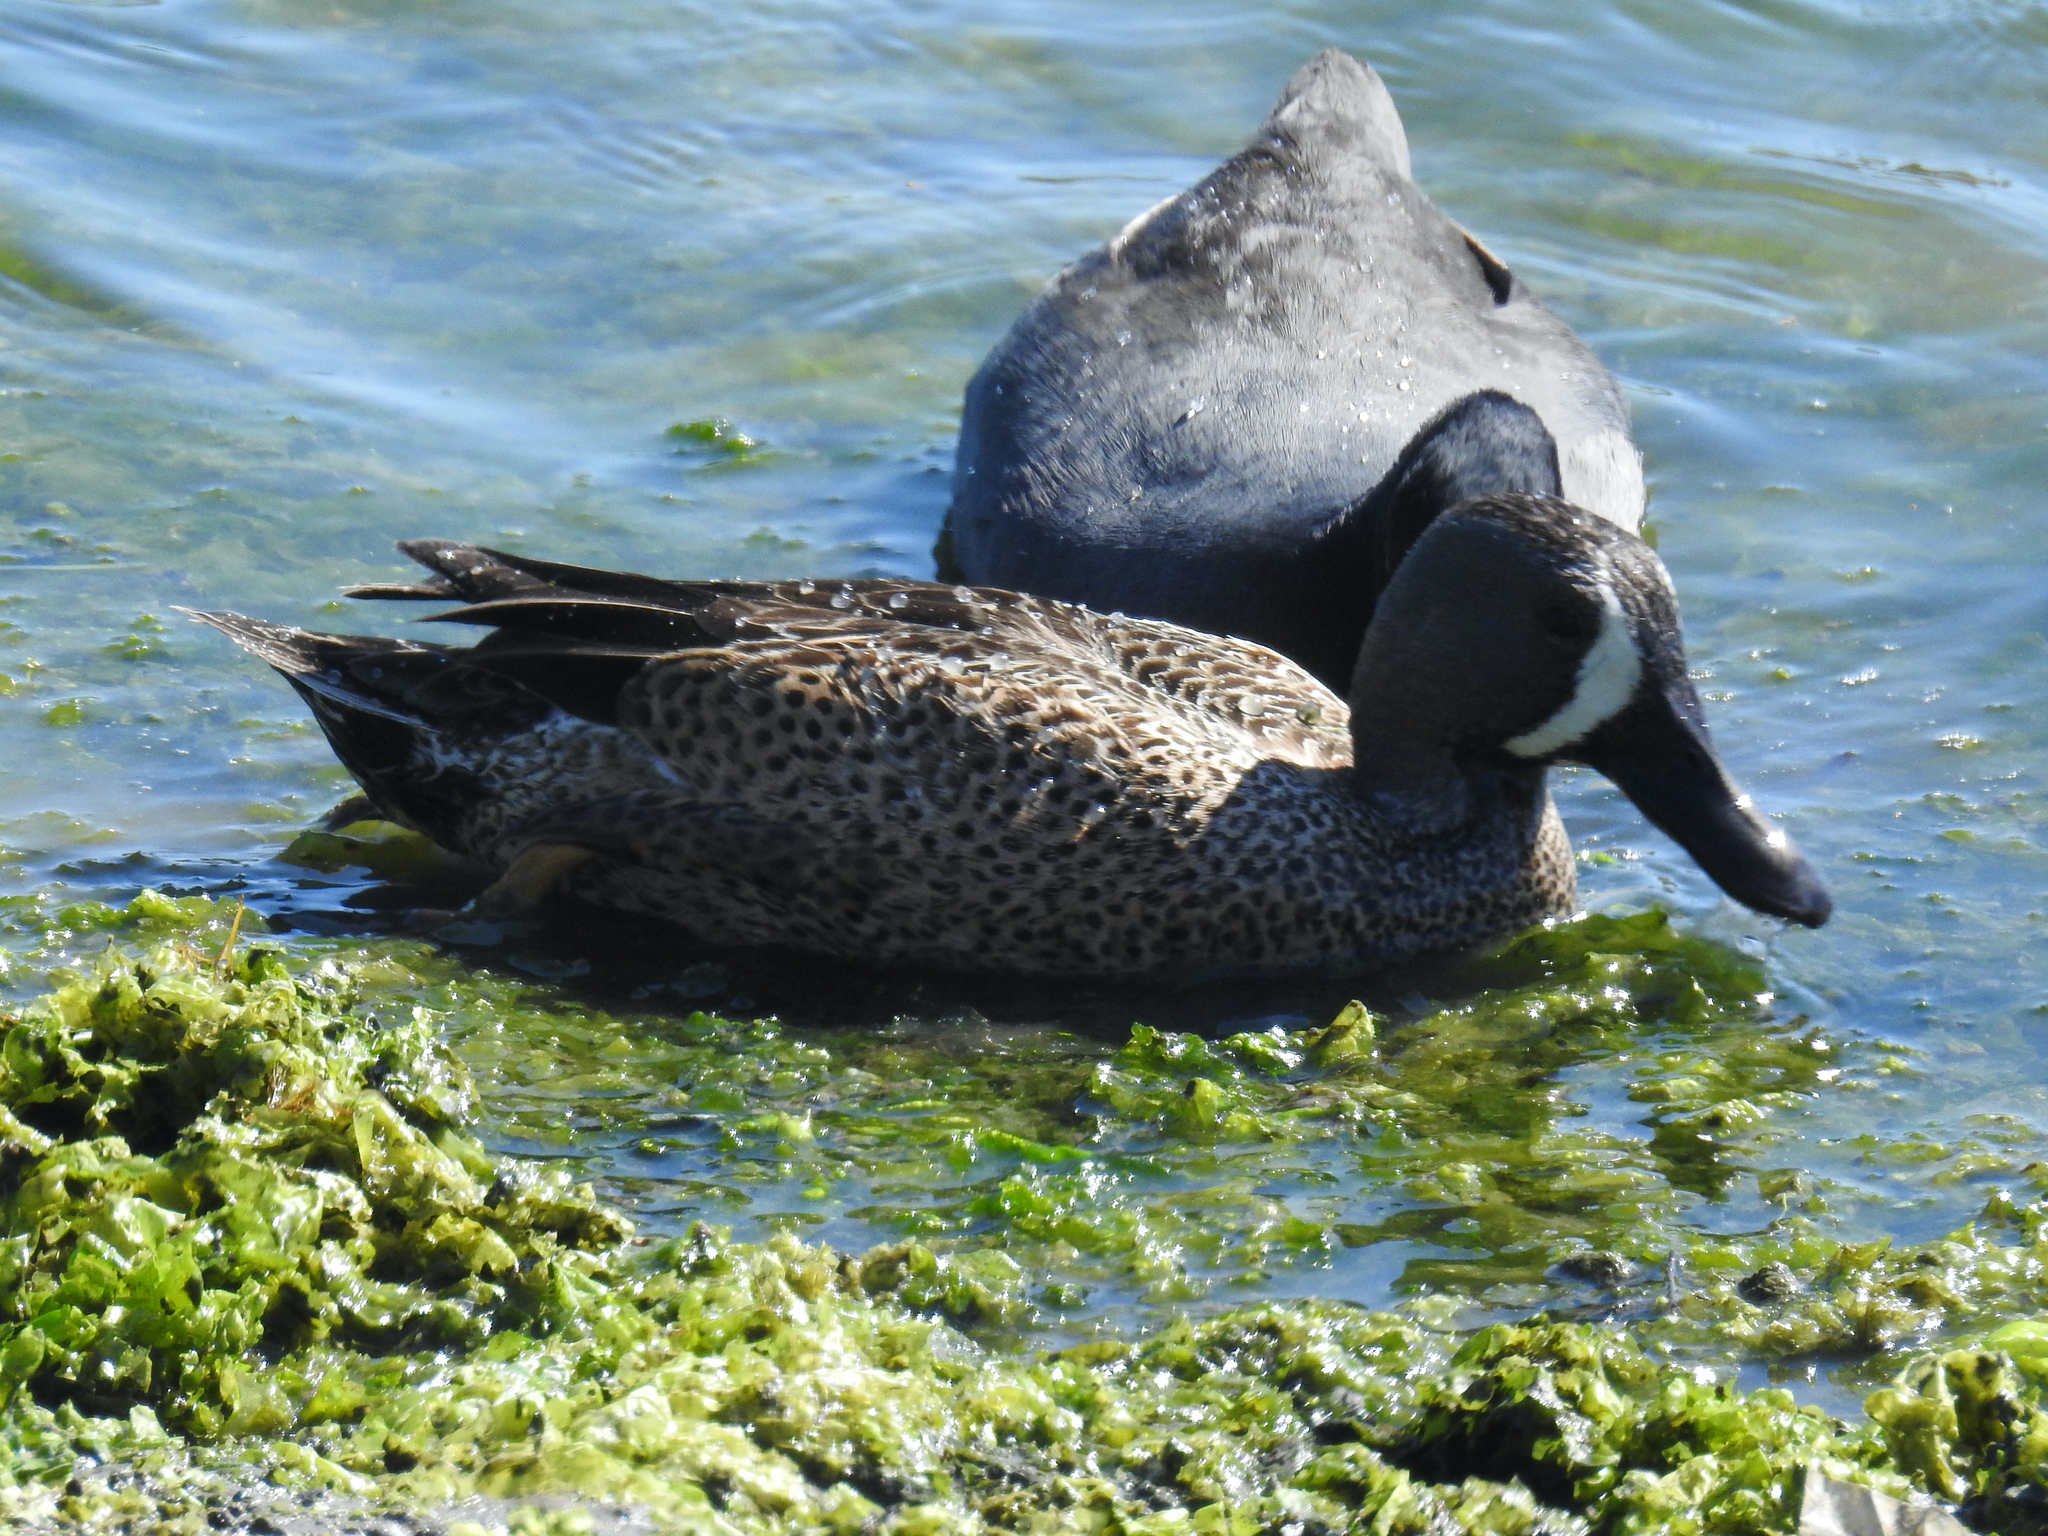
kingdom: Animalia
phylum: Chordata
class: Aves
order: Anseriformes
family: Anatidae
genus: Spatula
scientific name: Spatula discors
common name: Blue-winged teal
